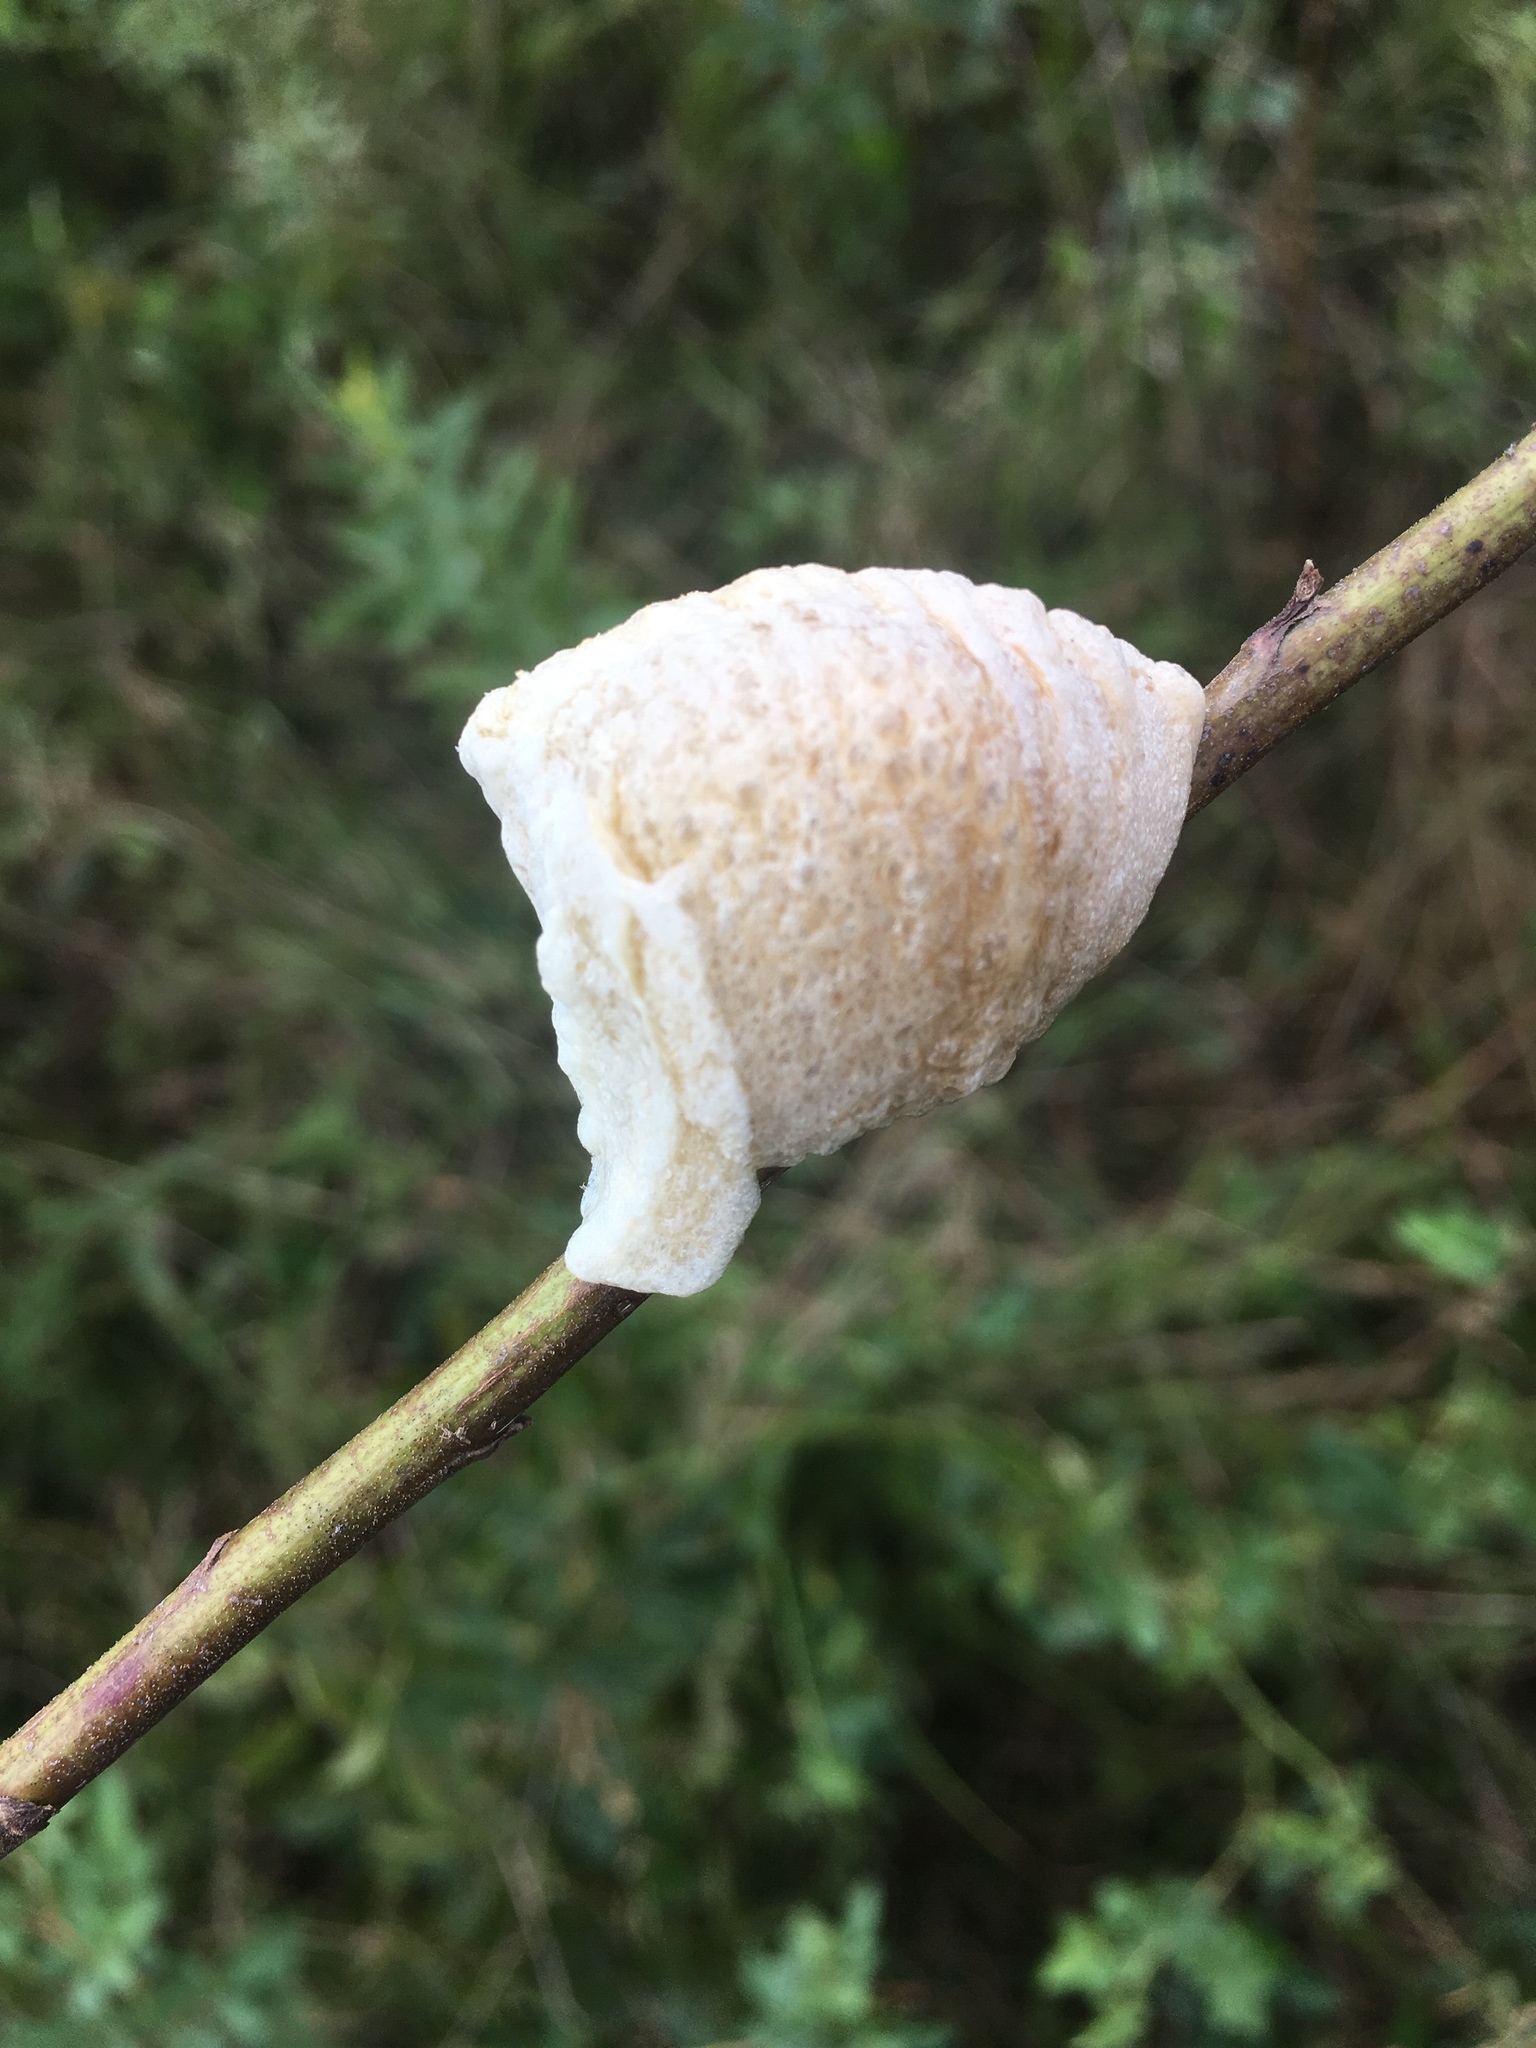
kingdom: Animalia
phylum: Arthropoda
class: Insecta
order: Mantodea
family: Mantidae
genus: Tenodera
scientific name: Tenodera sinensis
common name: Chinese mantis
